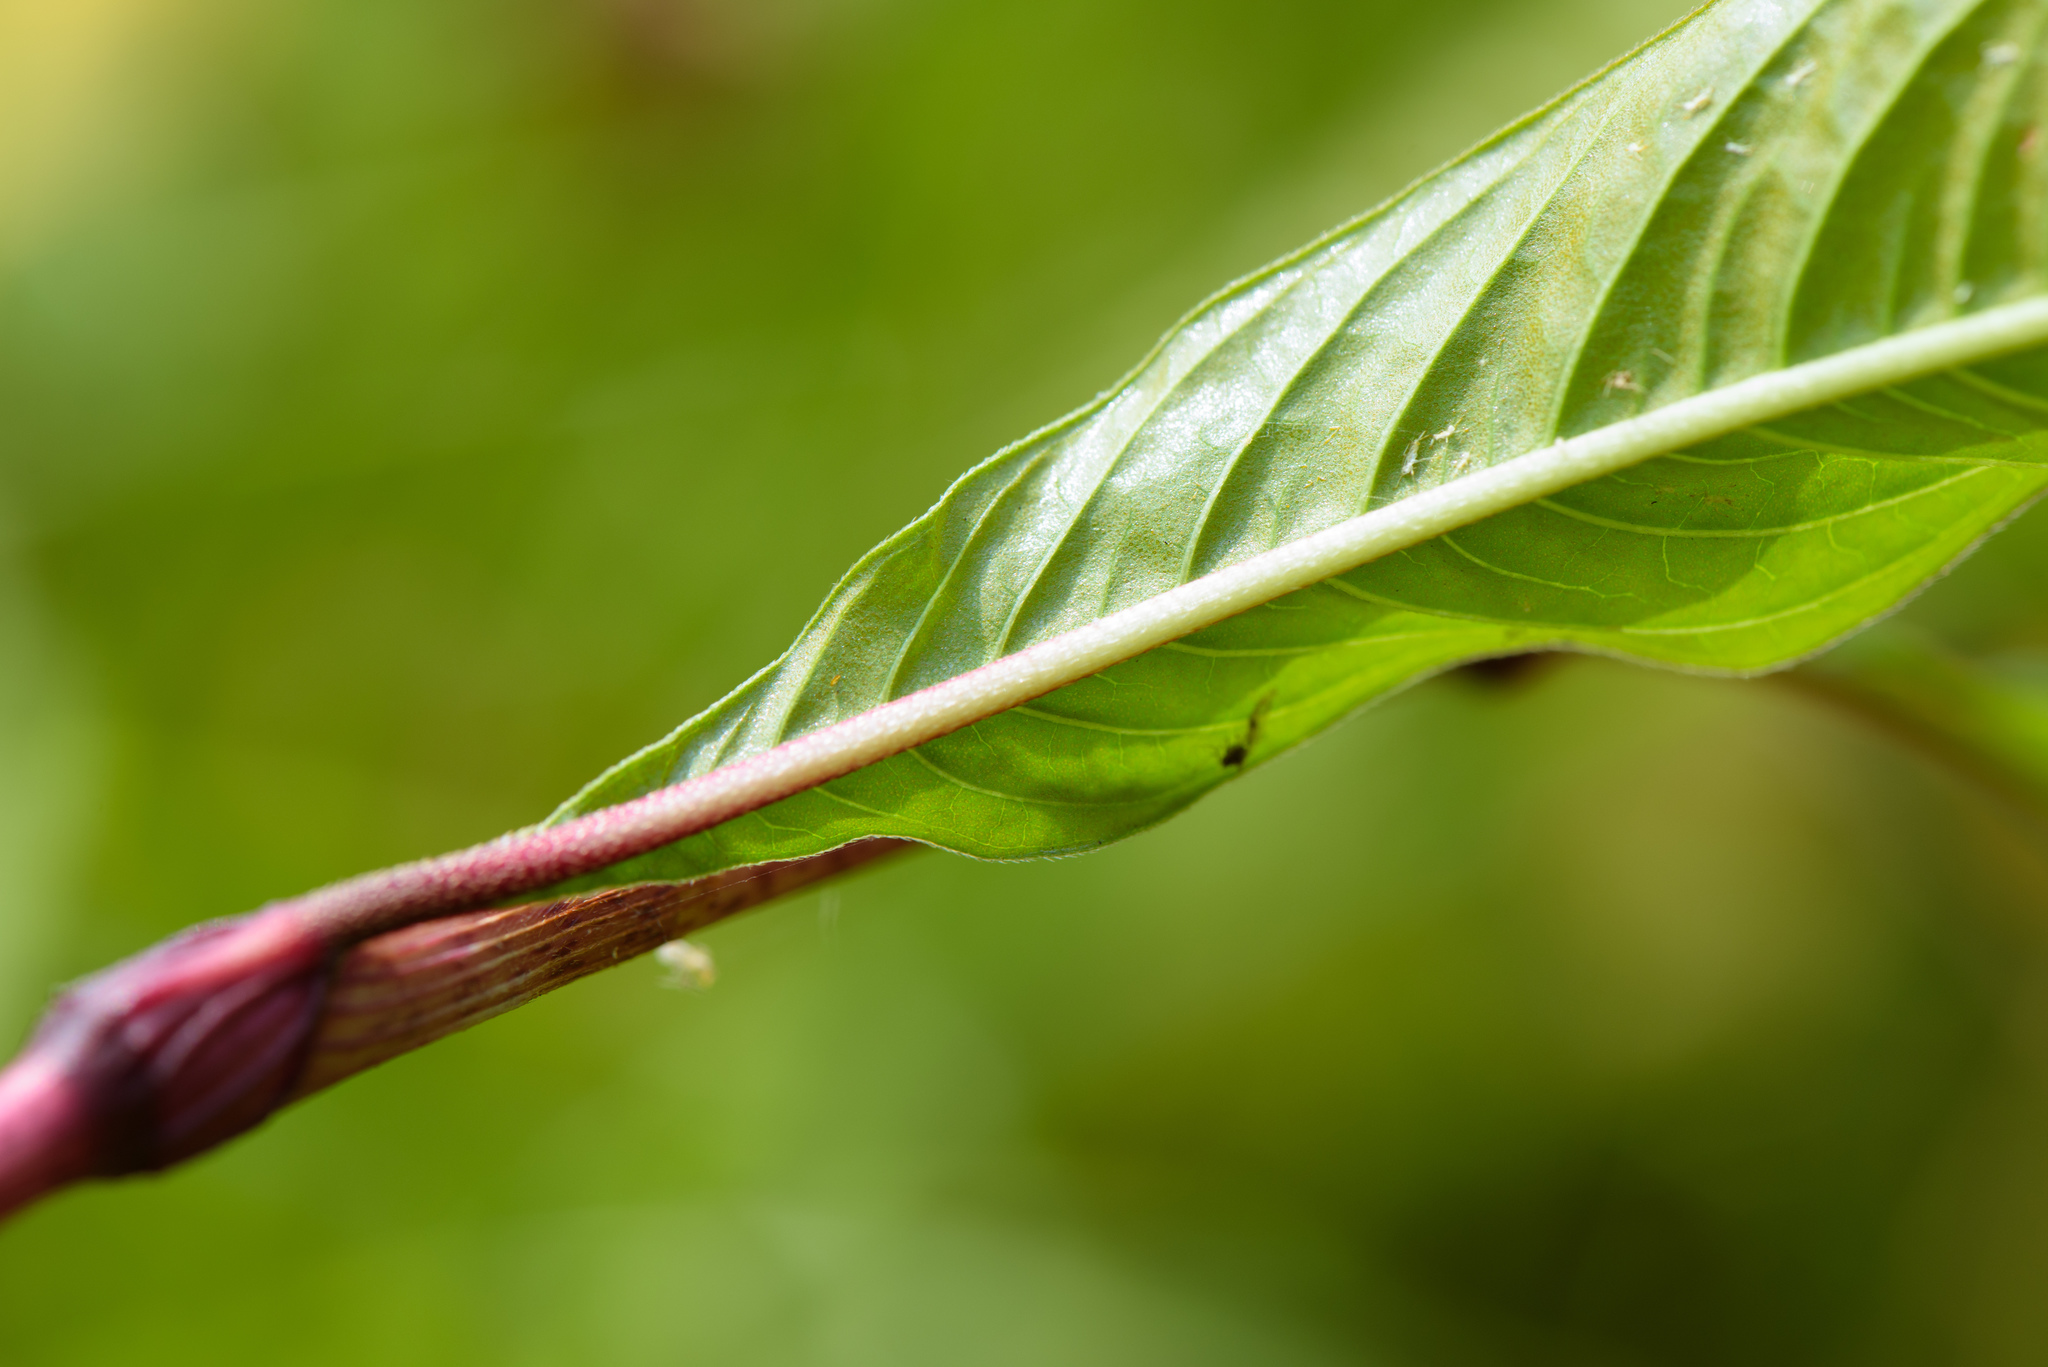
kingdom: Plantae
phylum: Tracheophyta
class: Magnoliopsida
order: Caryophyllales
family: Polygonaceae
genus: Persicaria
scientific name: Persicaria lapathifolia
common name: Curlytop knotweed
